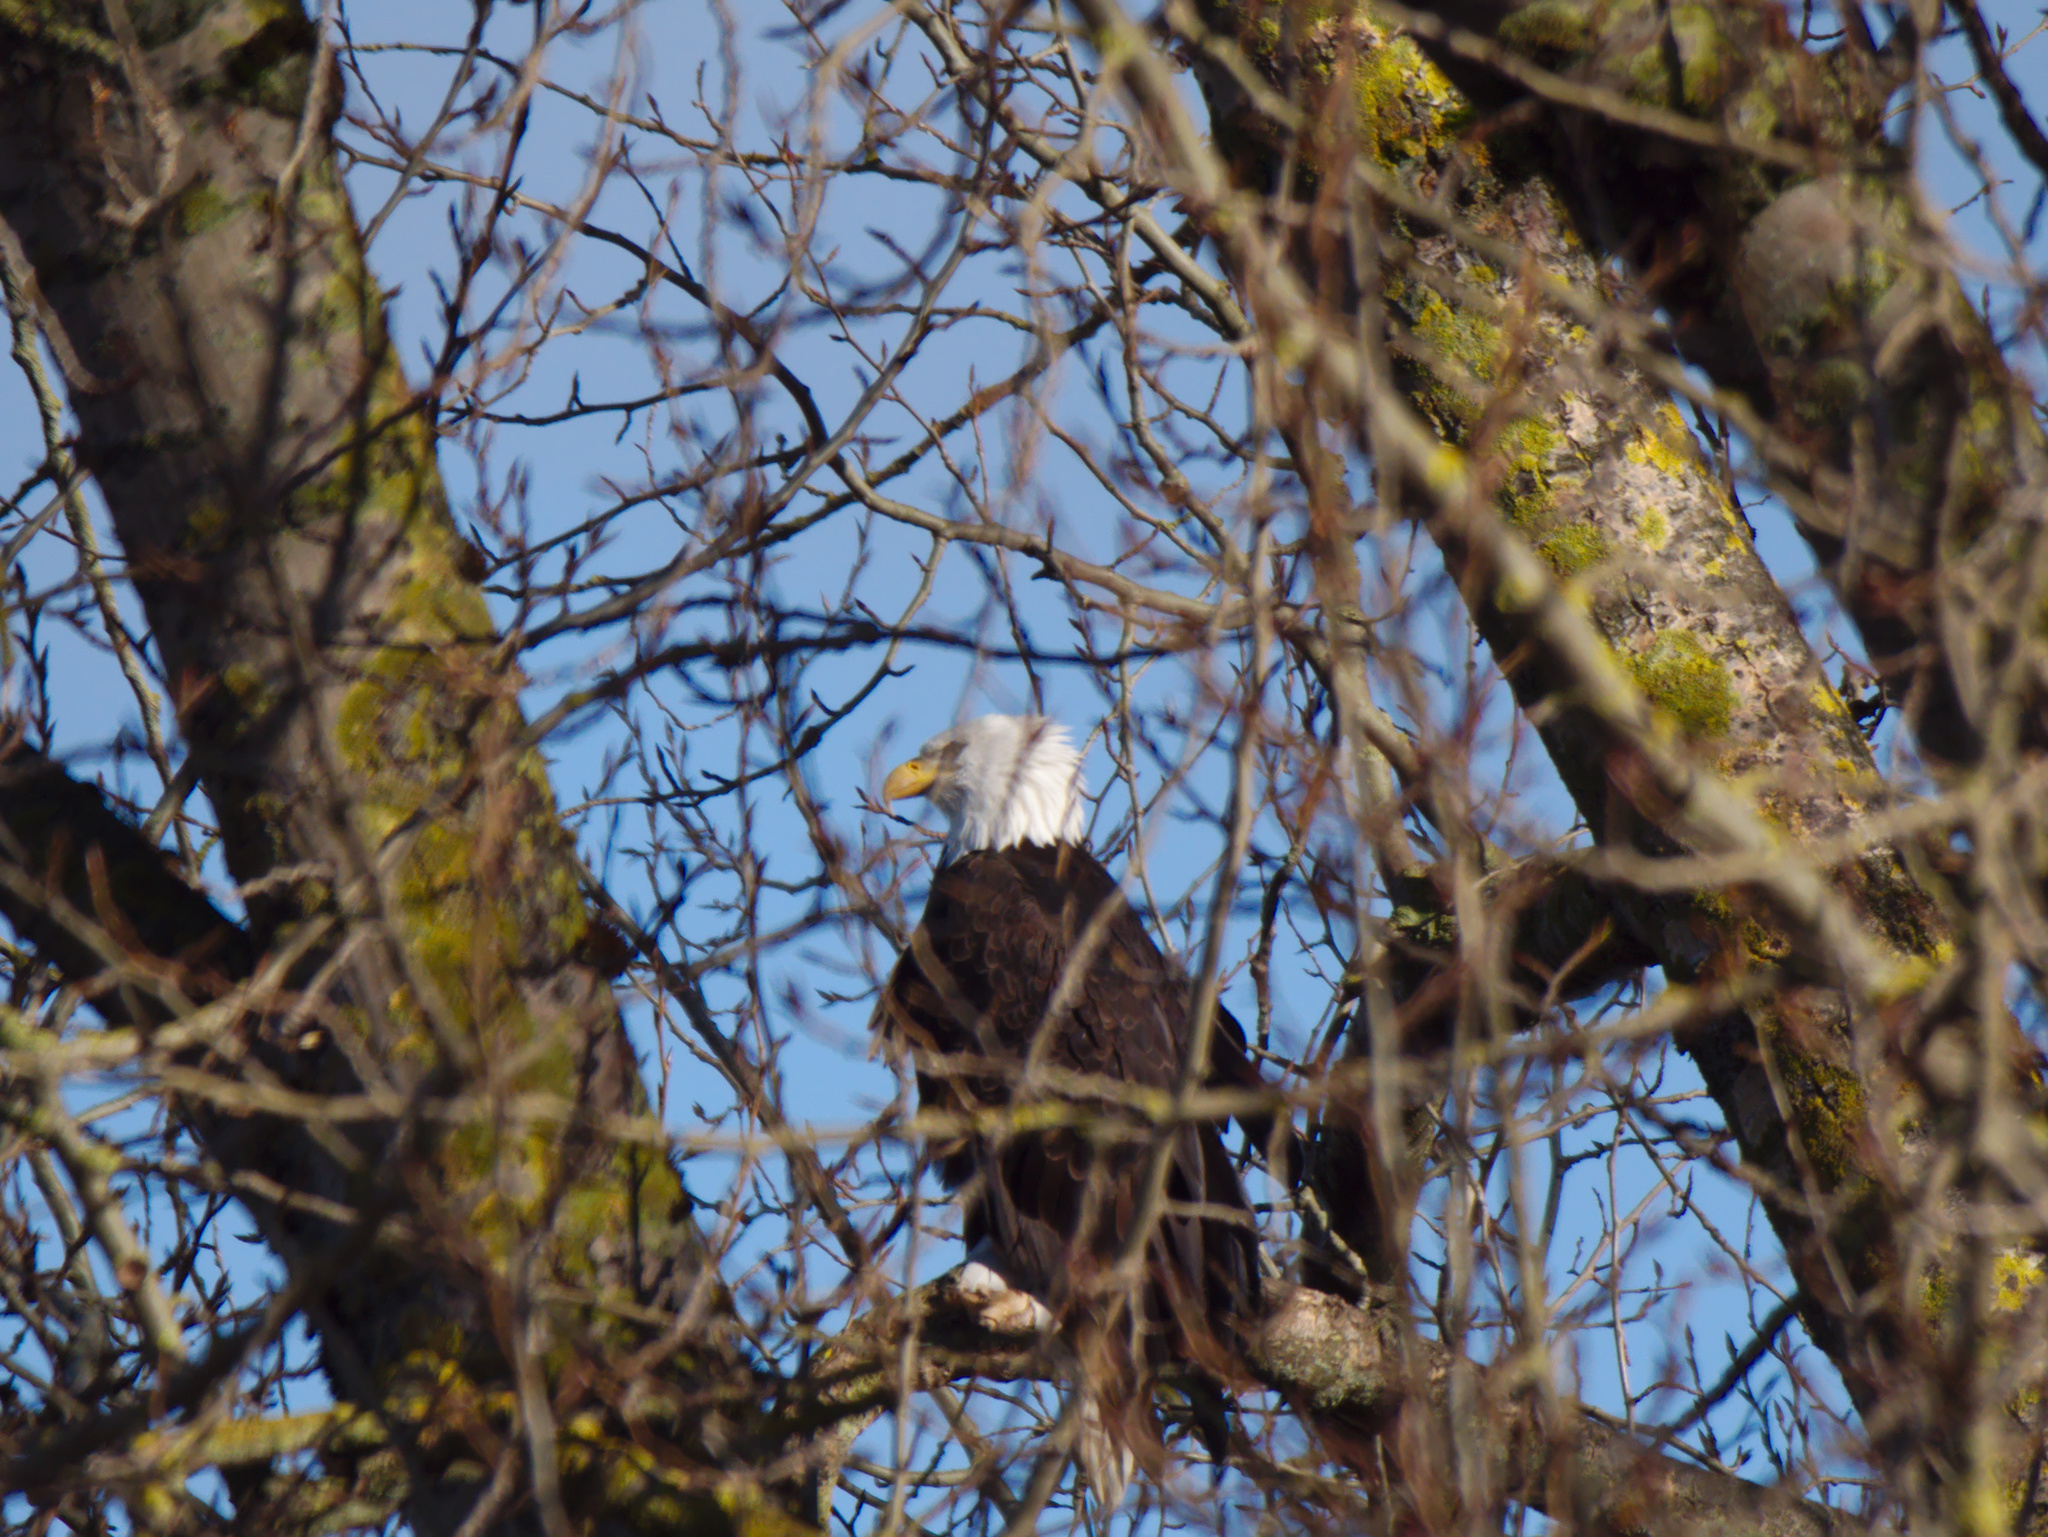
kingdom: Animalia
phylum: Chordata
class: Aves
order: Accipitriformes
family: Accipitridae
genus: Haliaeetus
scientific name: Haliaeetus leucocephalus
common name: Bald eagle
